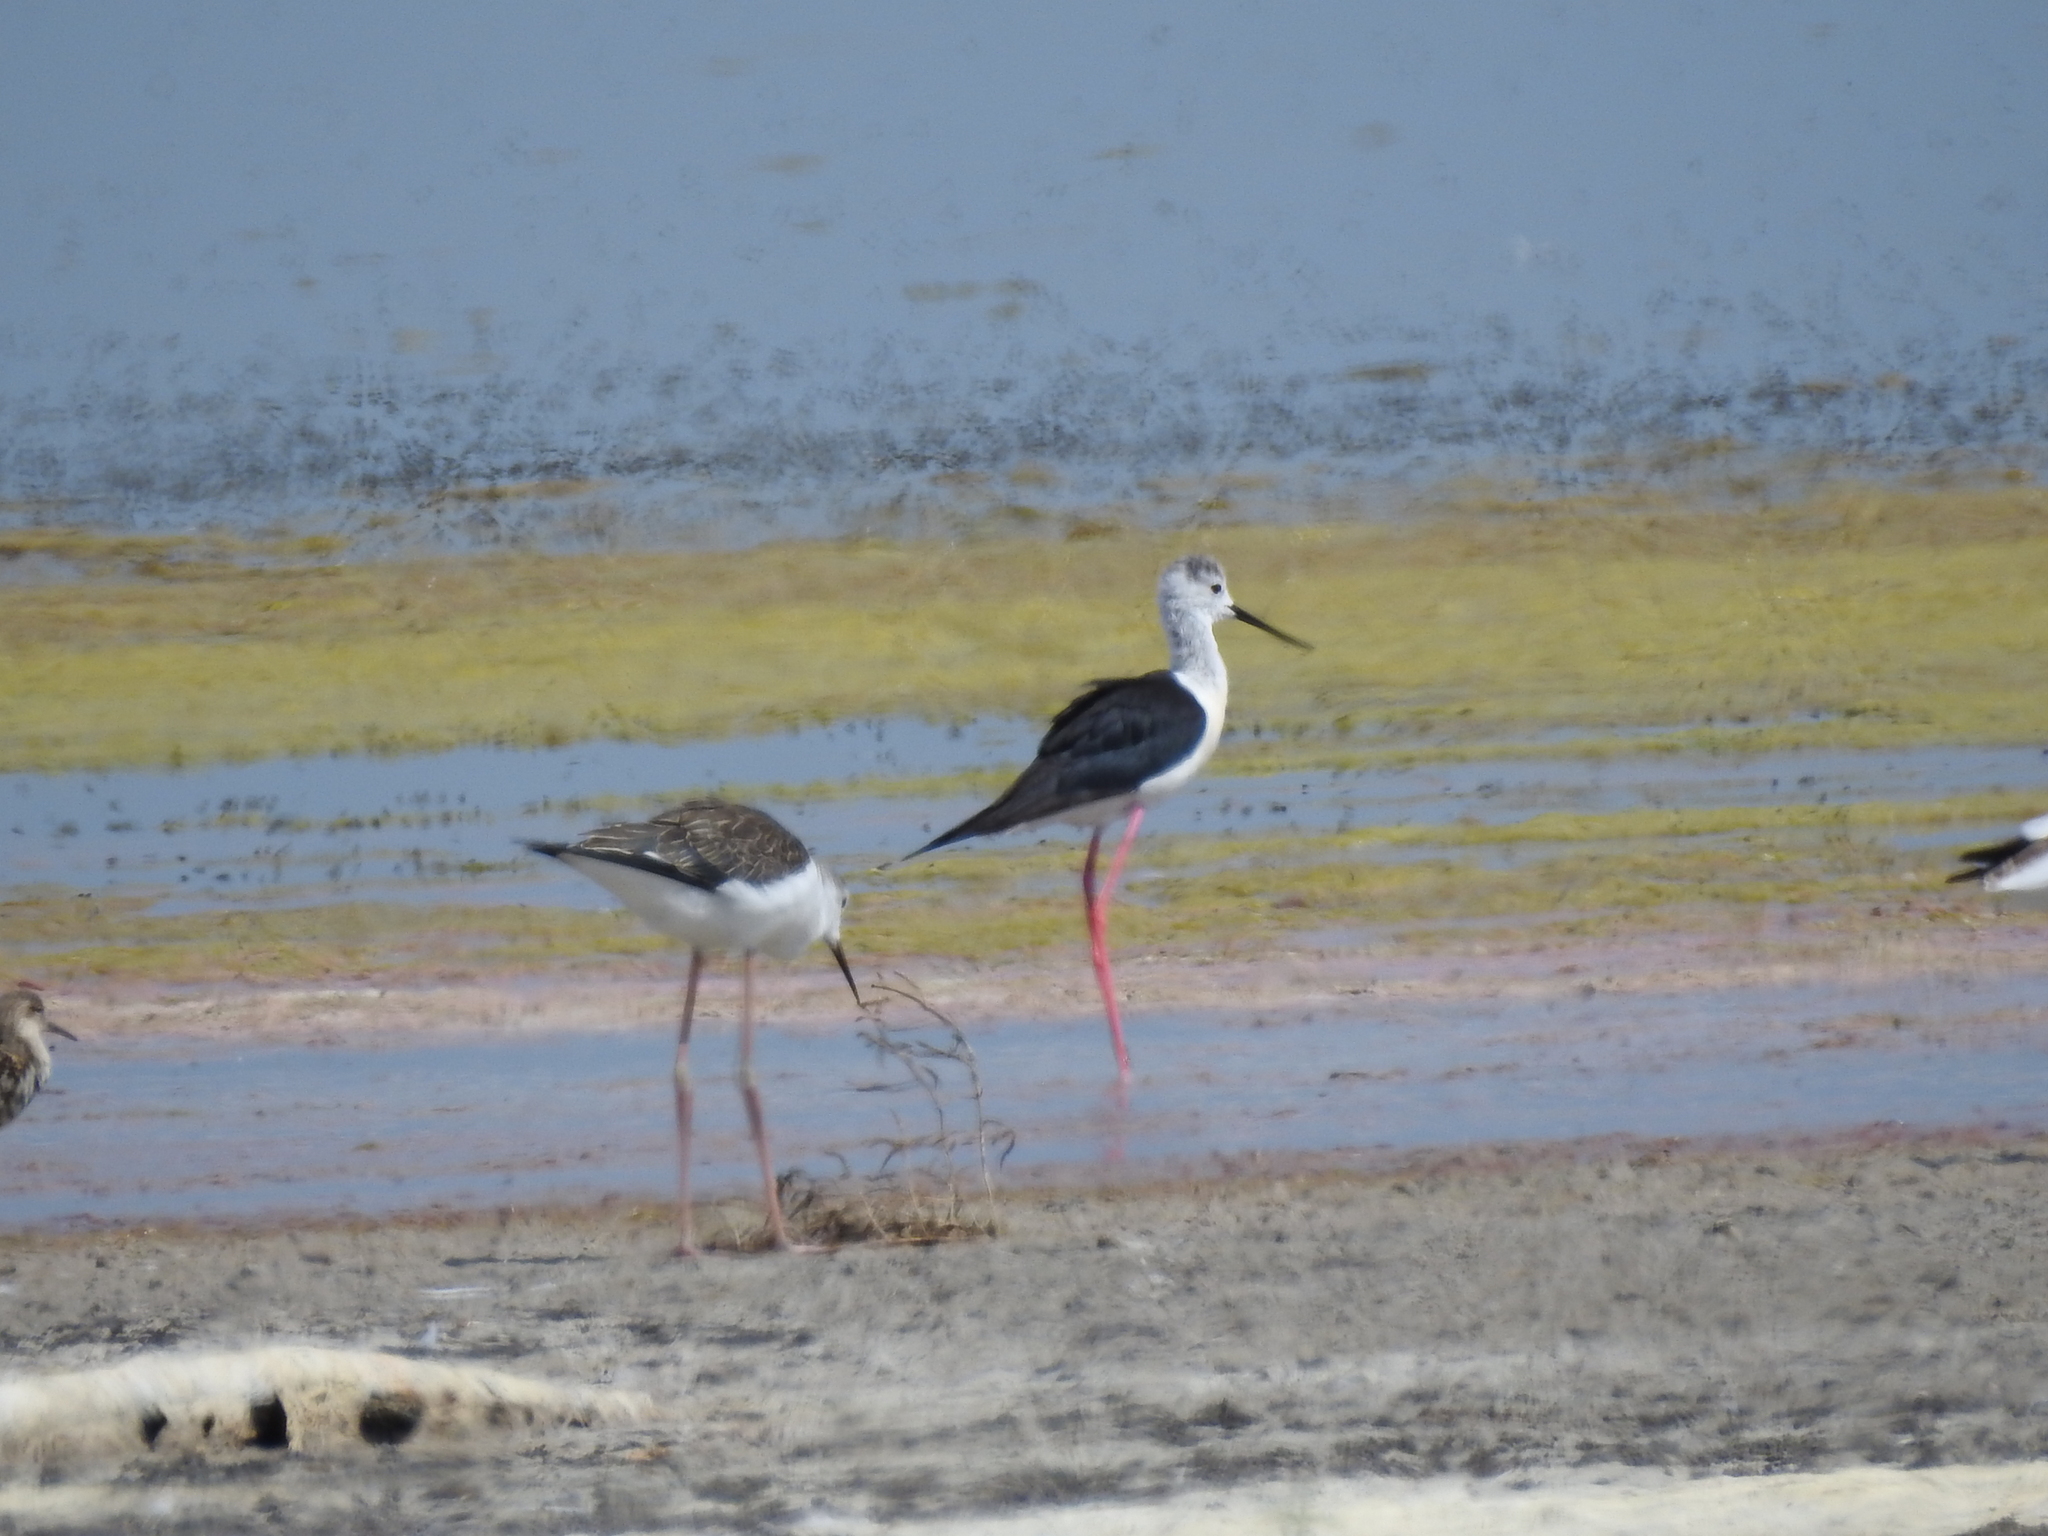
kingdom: Animalia
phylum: Chordata
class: Aves
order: Charadriiformes
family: Recurvirostridae
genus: Himantopus
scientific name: Himantopus himantopus
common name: Black-winged stilt
